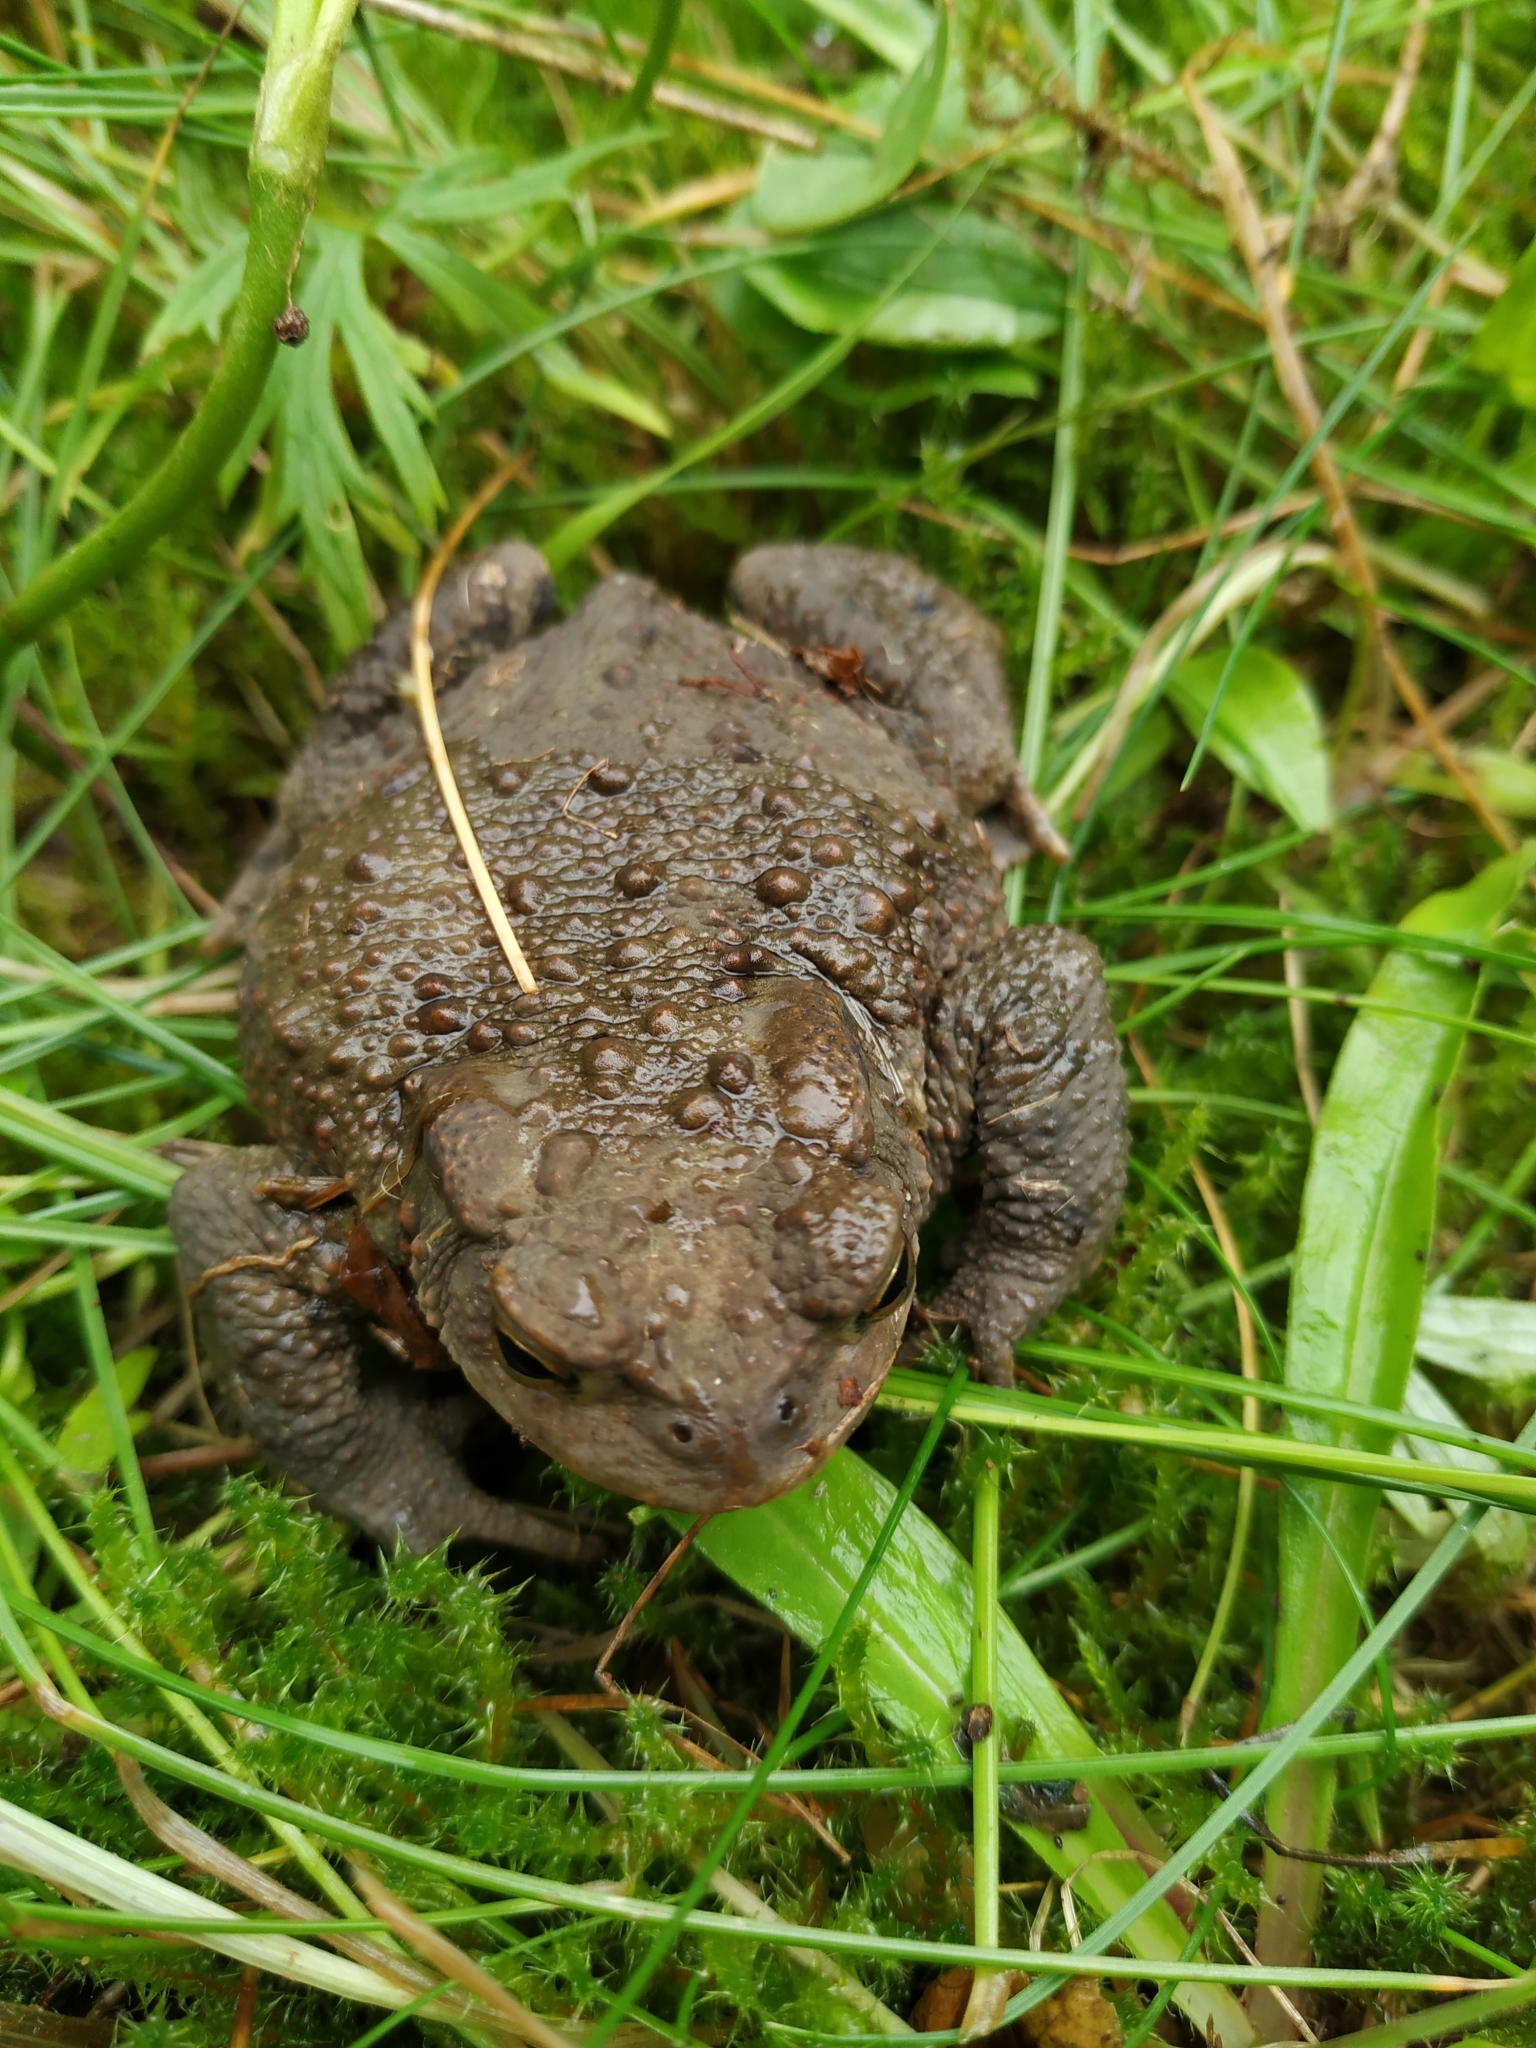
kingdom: Animalia
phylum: Chordata
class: Amphibia
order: Anura
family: Bufonidae
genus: Bufo
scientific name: Bufo bufo
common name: Common toad
